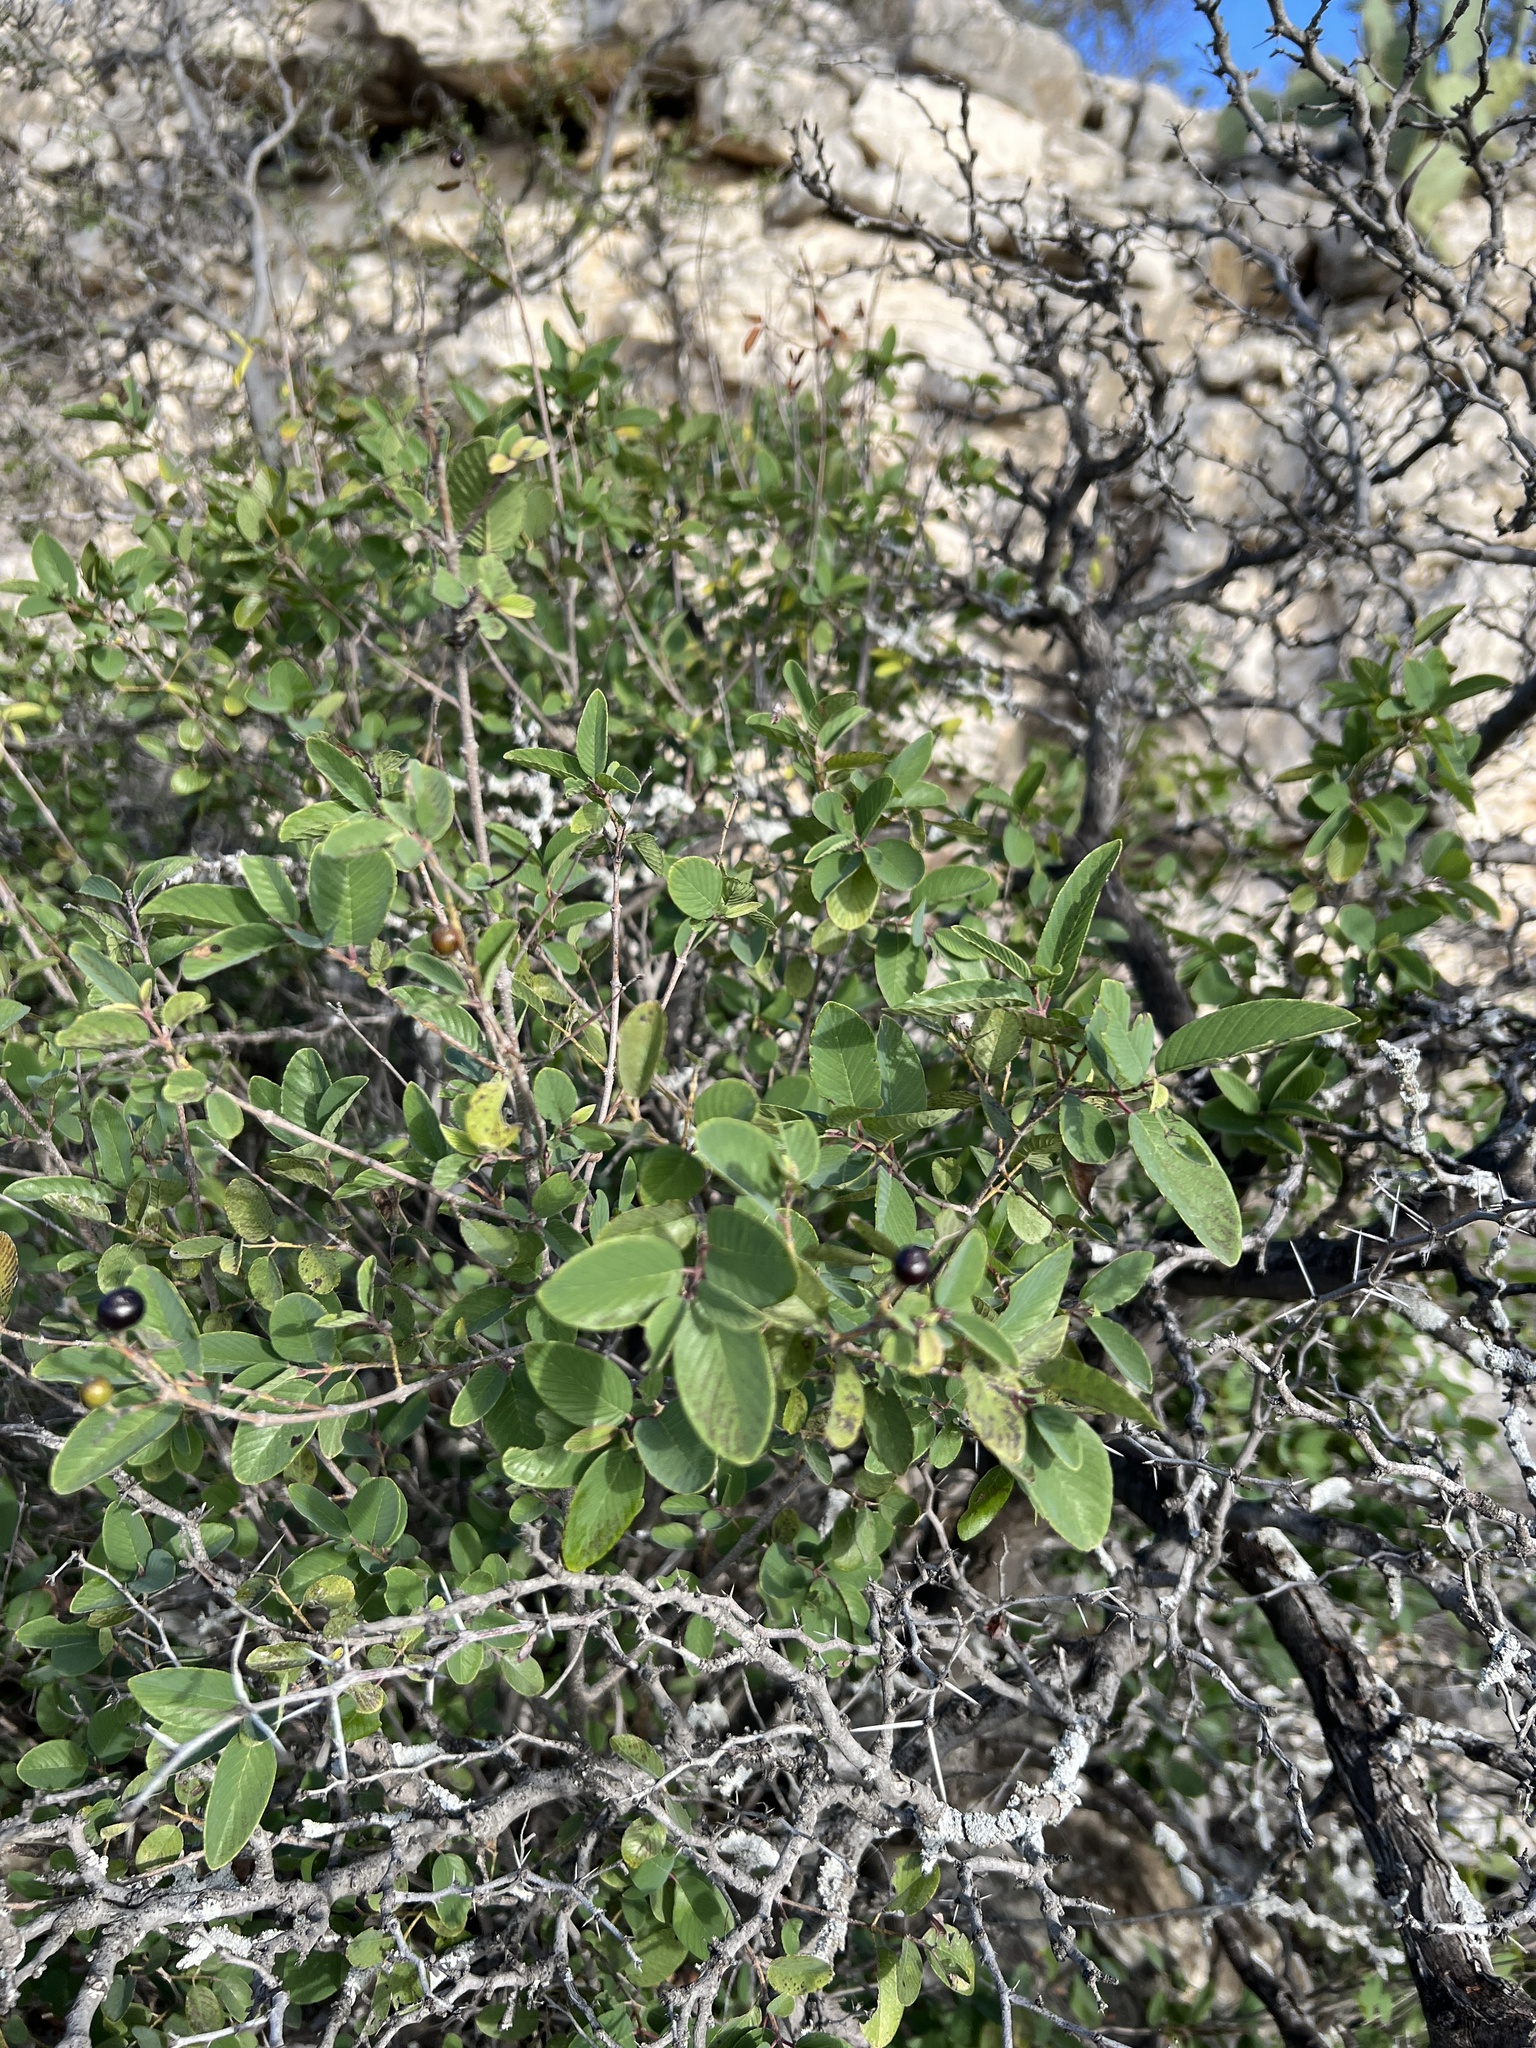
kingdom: Plantae
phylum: Tracheophyta
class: Magnoliopsida
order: Rosales
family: Rhamnaceae
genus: Karwinskia
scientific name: Karwinskia humboldtiana
